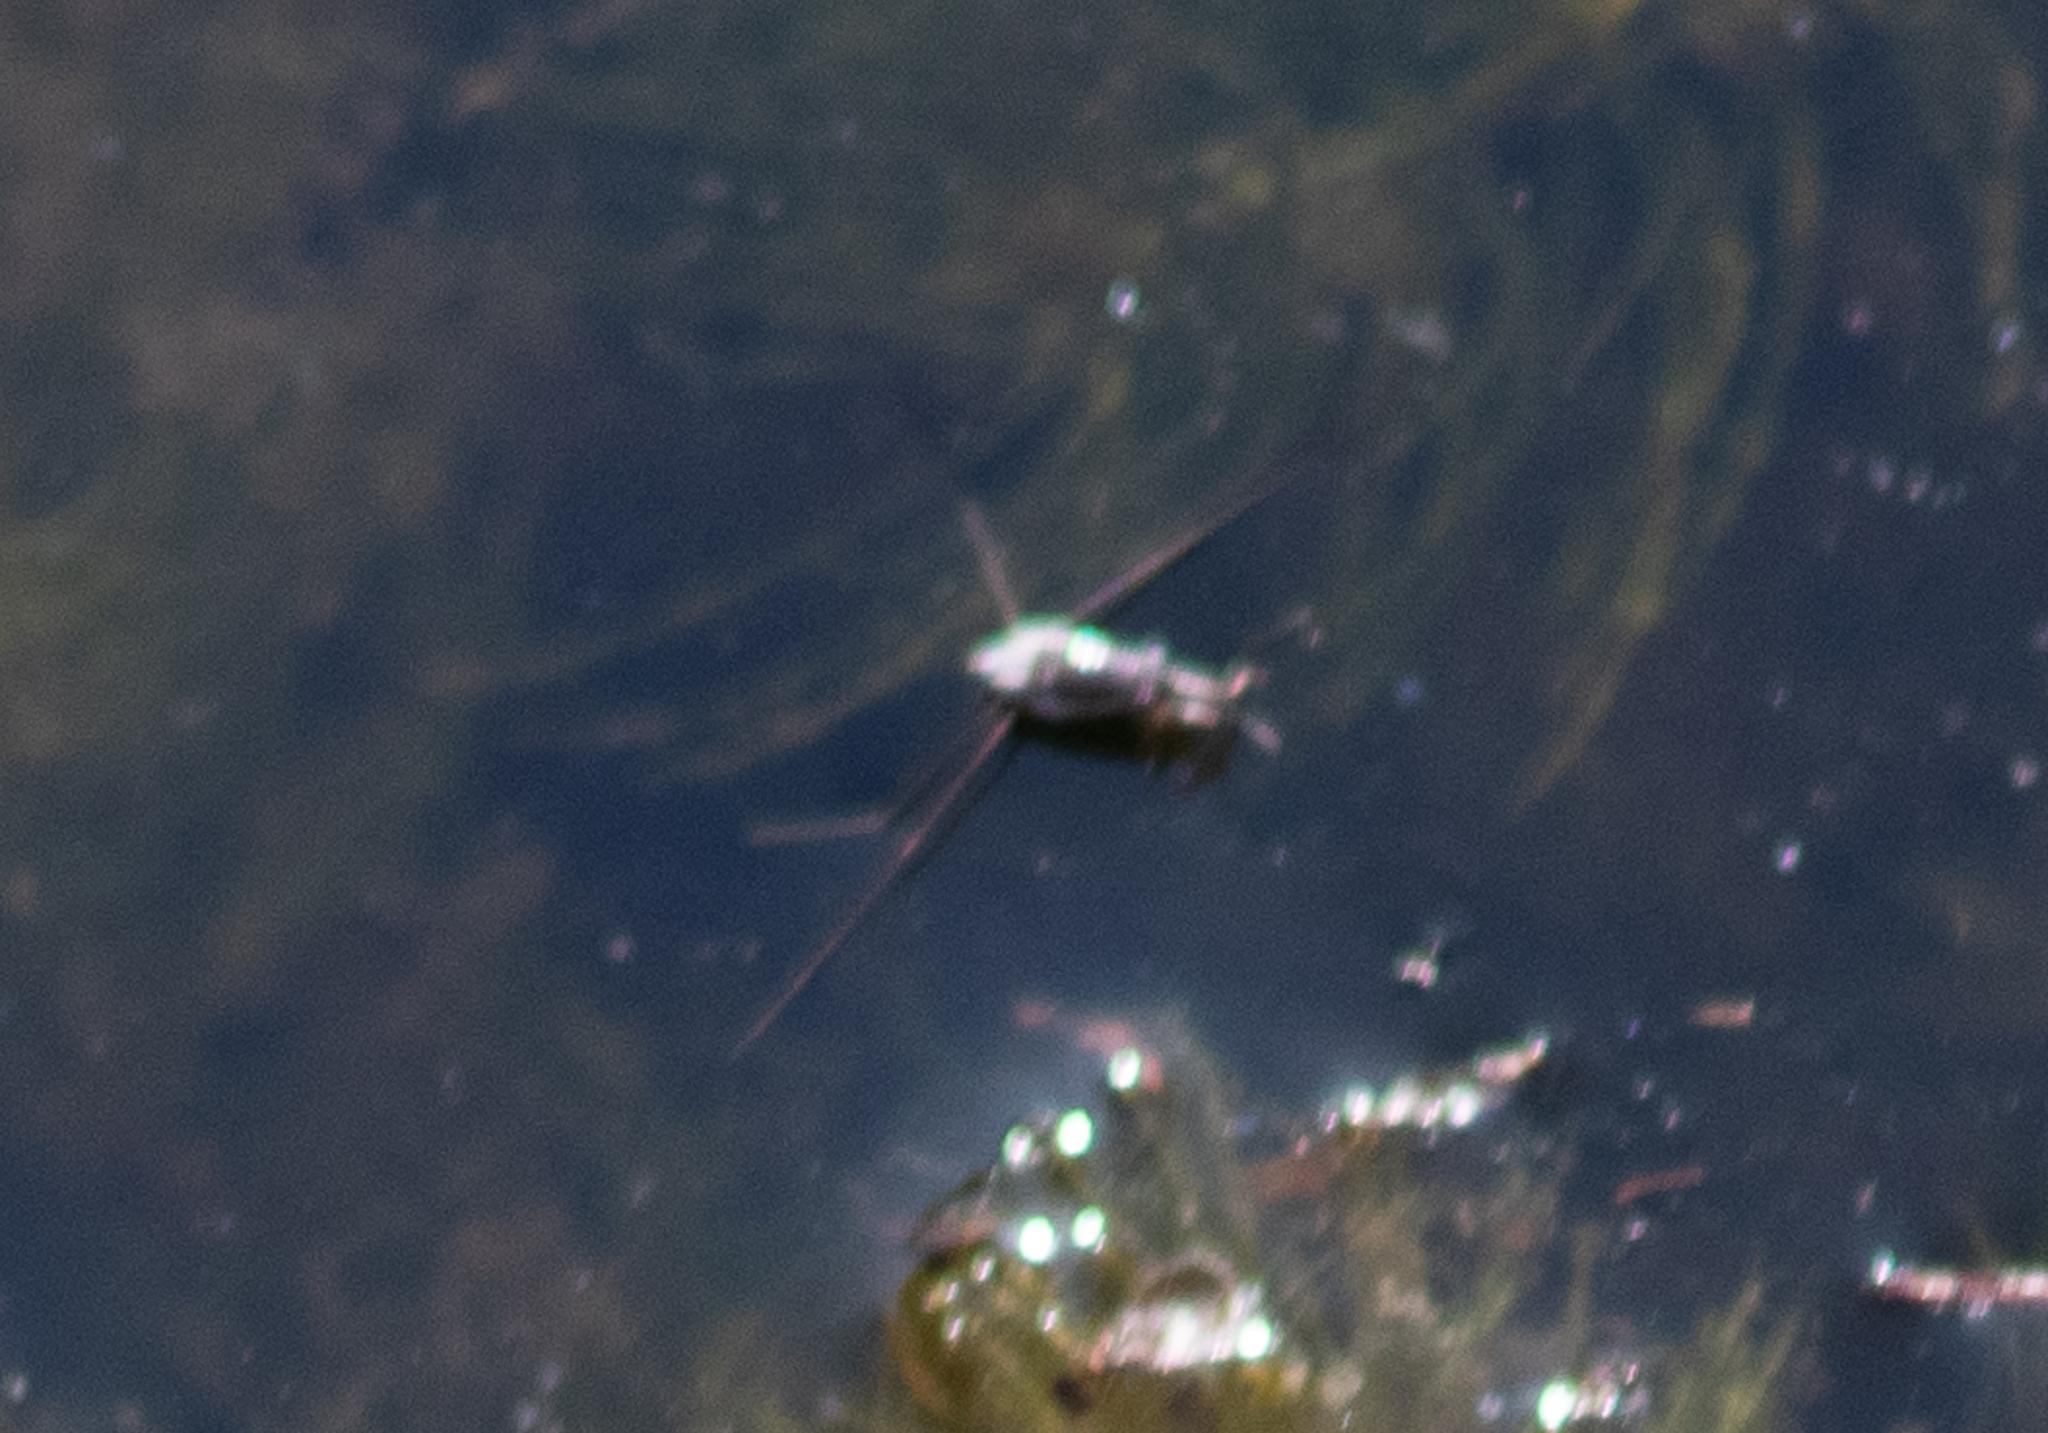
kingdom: Animalia
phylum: Arthropoda
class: Insecta
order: Hemiptera
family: Gerridae
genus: Neogerris
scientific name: Neogerris hesione
